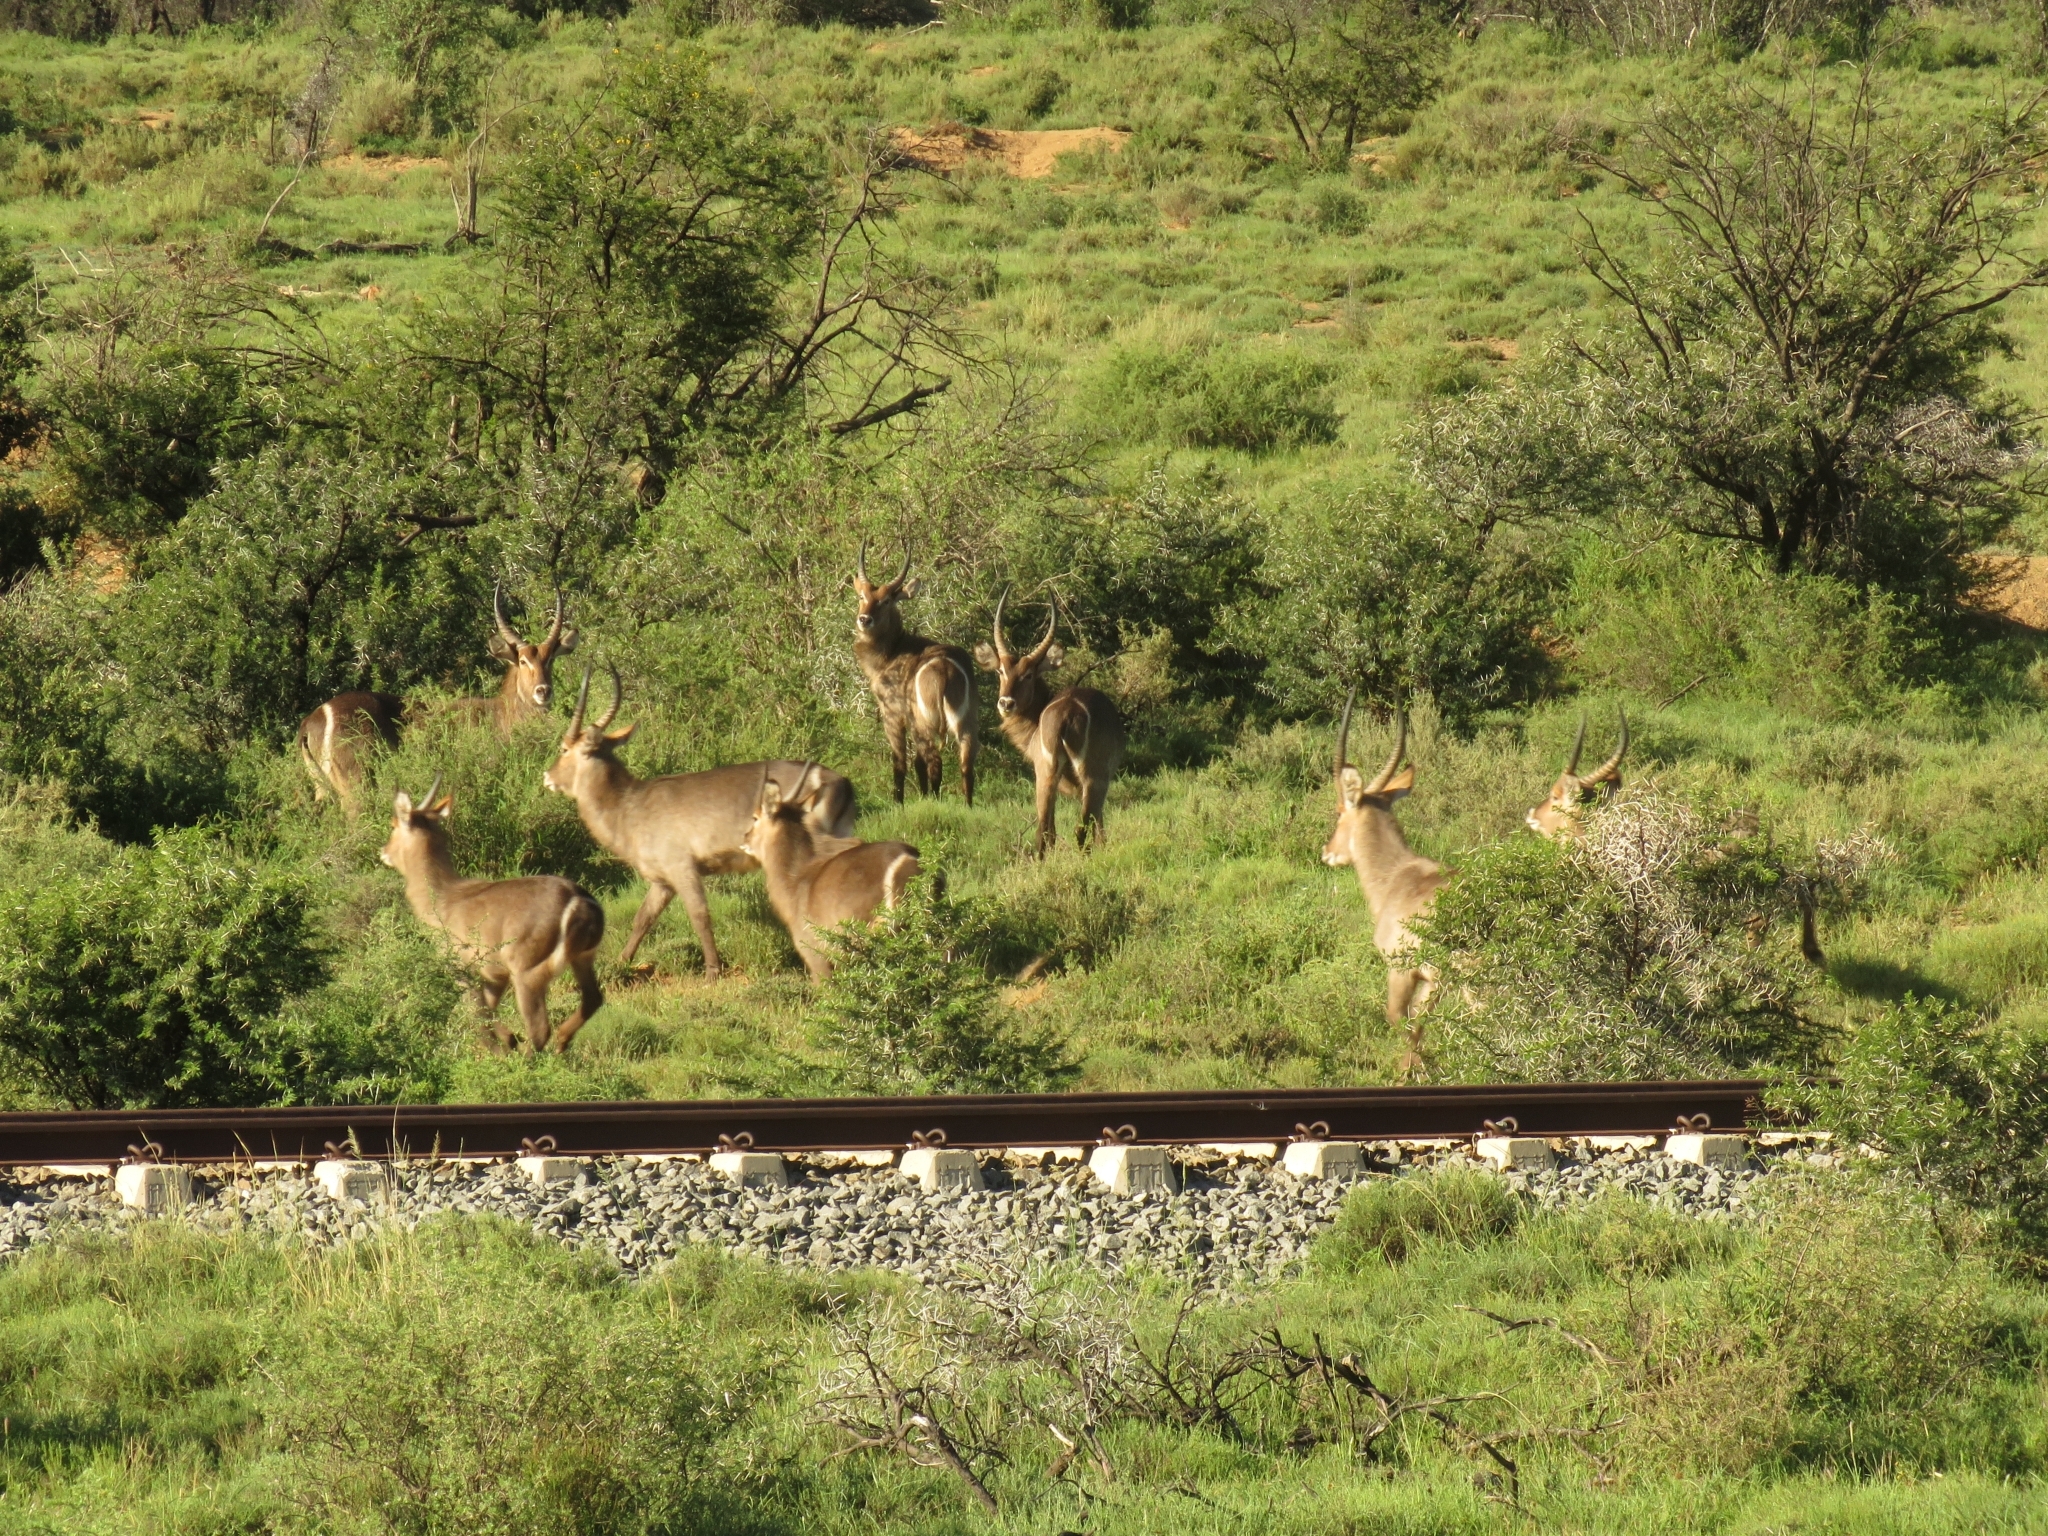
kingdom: Animalia
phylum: Chordata
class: Mammalia
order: Artiodactyla
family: Bovidae
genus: Kobus
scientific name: Kobus ellipsiprymnus
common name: Waterbuck
